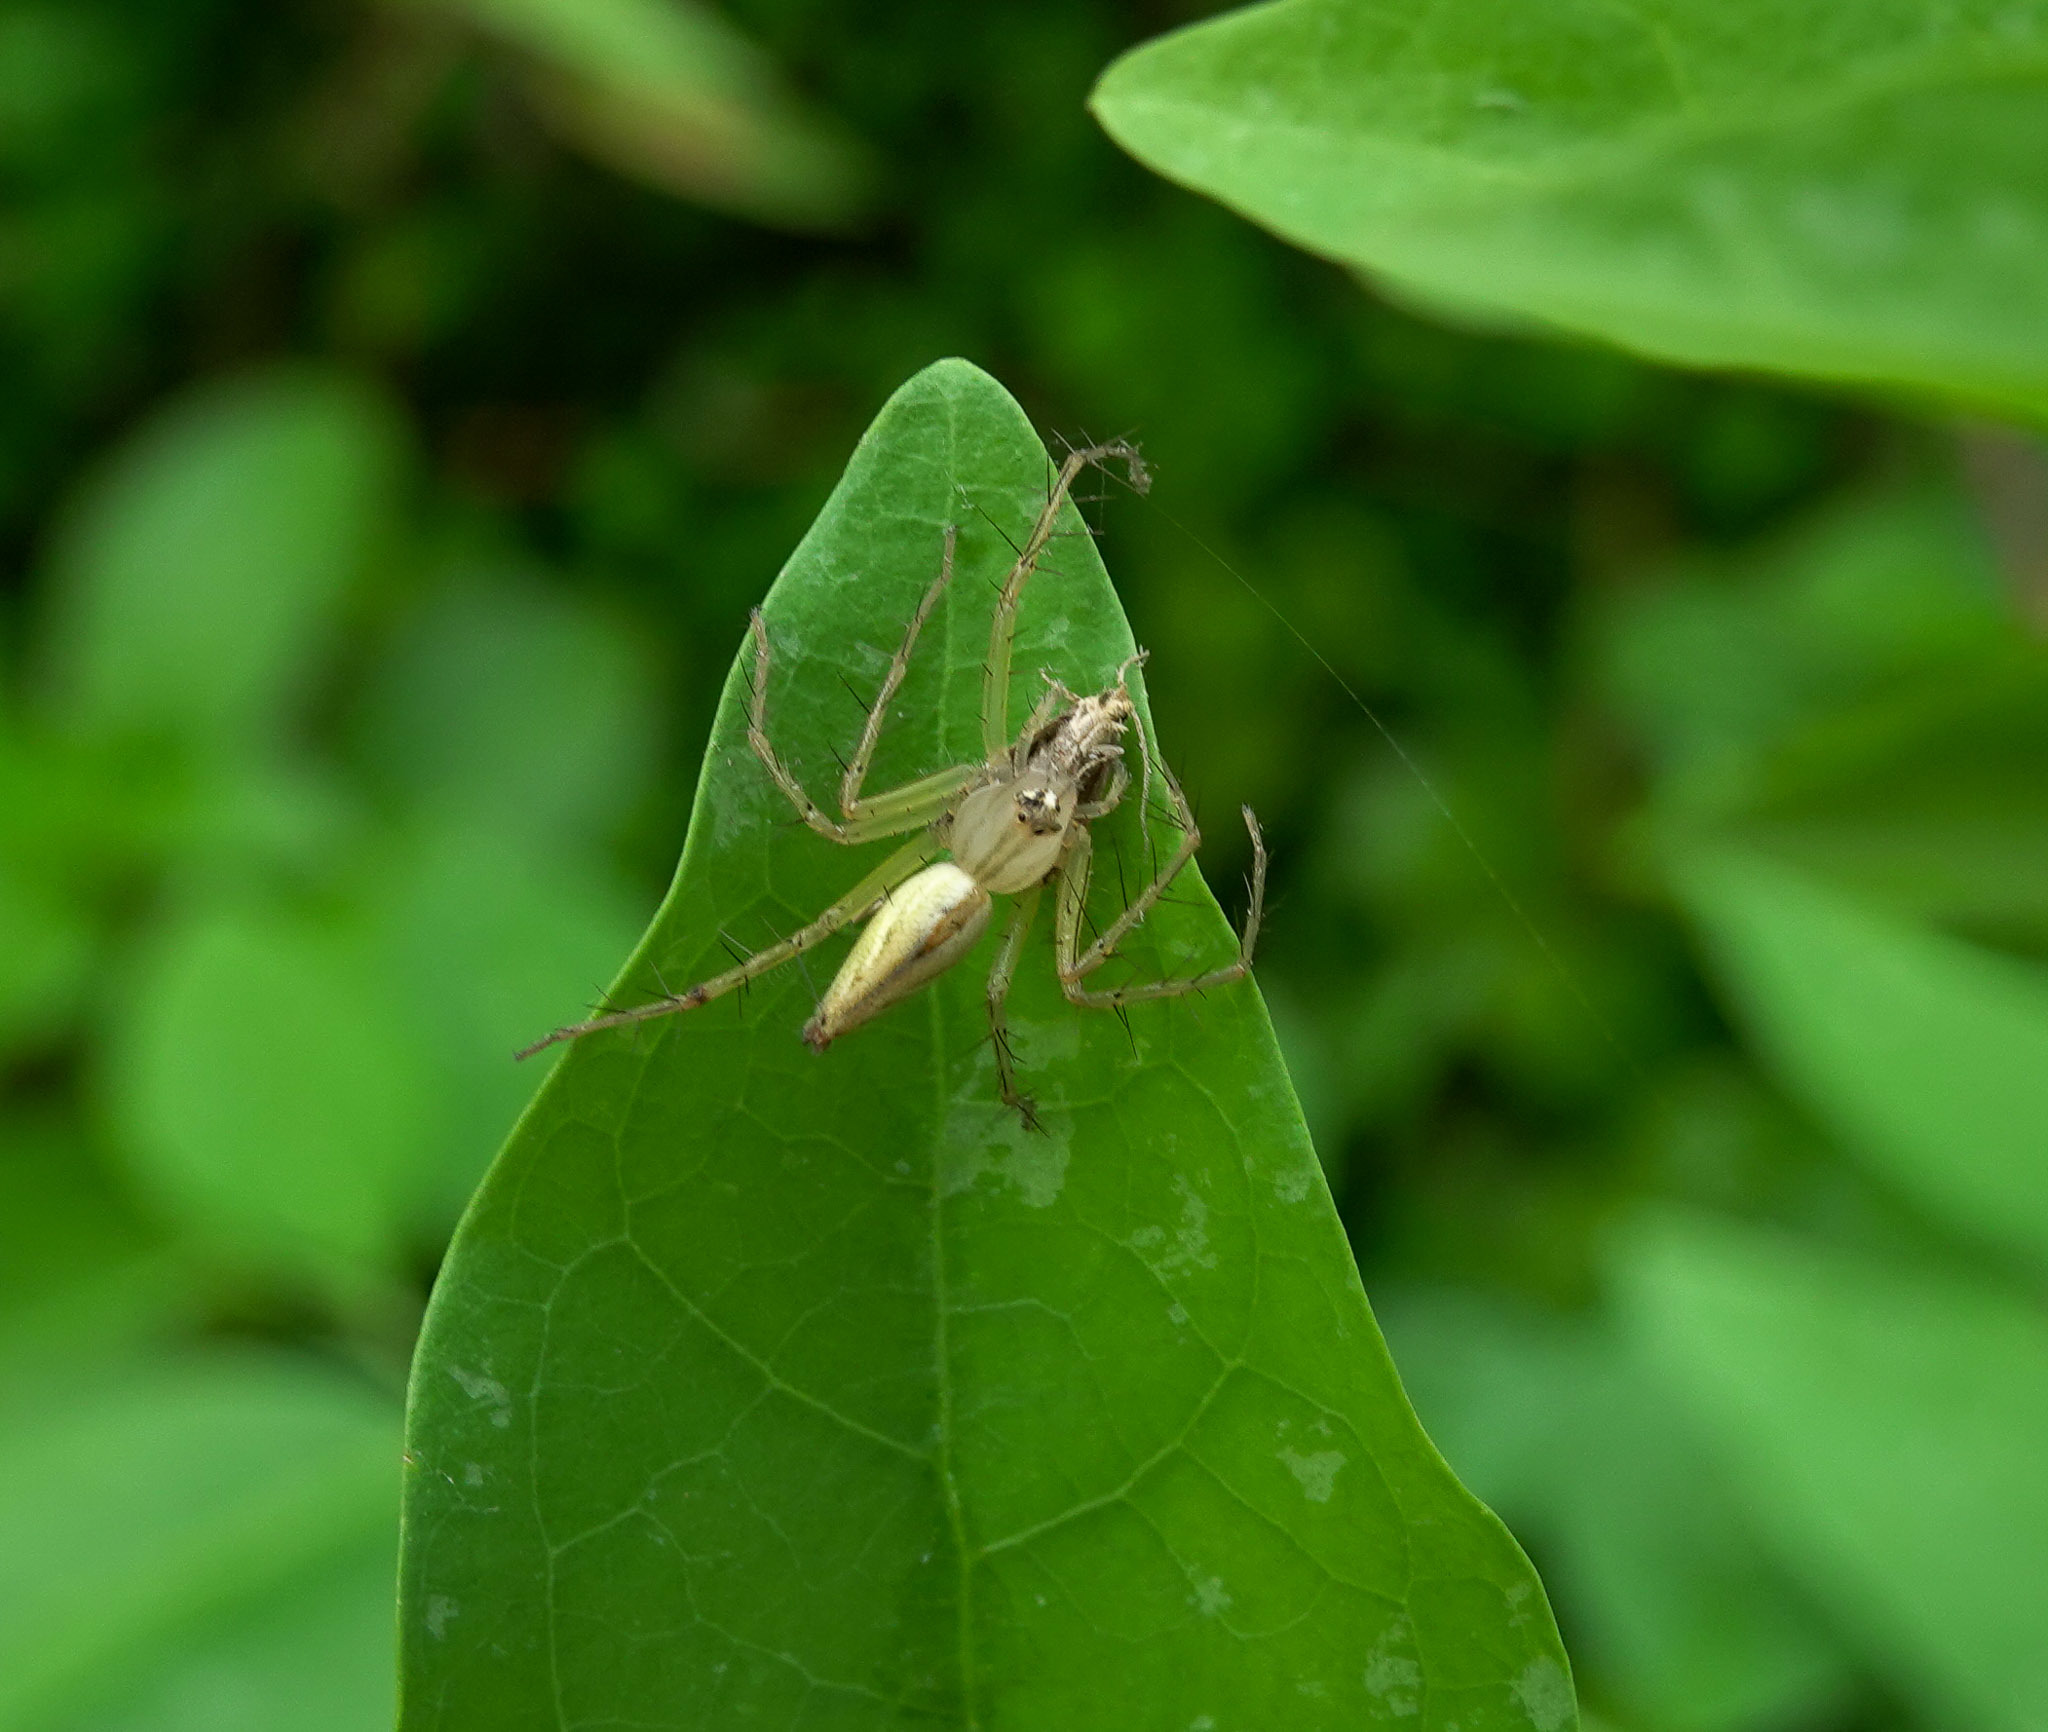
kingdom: Animalia
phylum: Arthropoda
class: Arachnida
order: Araneae
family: Oxyopidae
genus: Oxyopes
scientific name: Oxyopes sertatus
